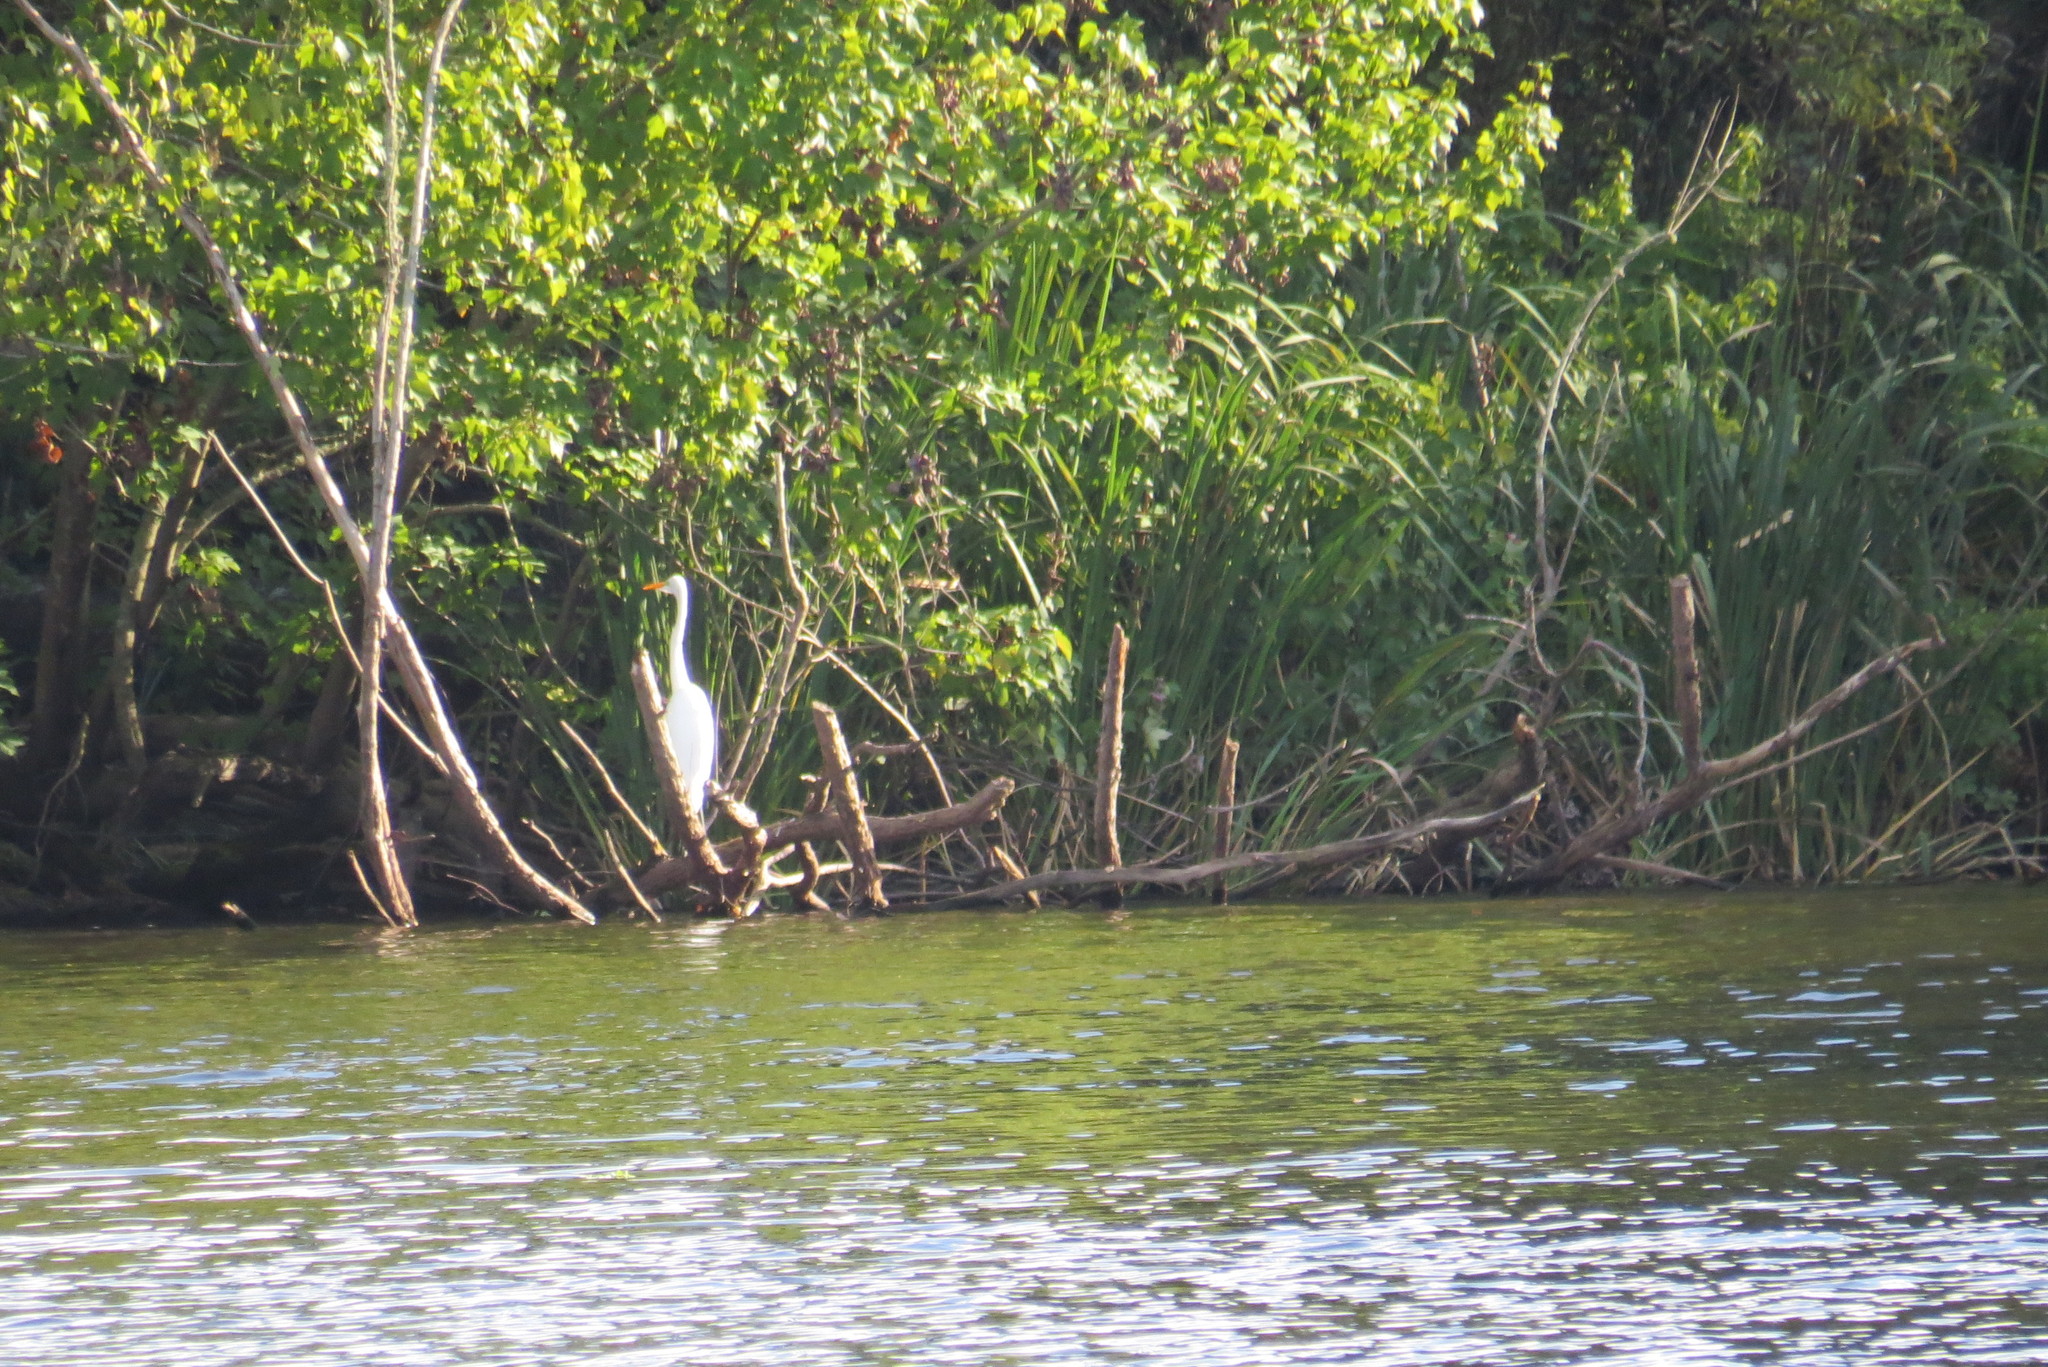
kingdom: Animalia
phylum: Chordata
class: Aves
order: Pelecaniformes
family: Ardeidae
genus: Ardea
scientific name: Ardea alba
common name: Great egret
